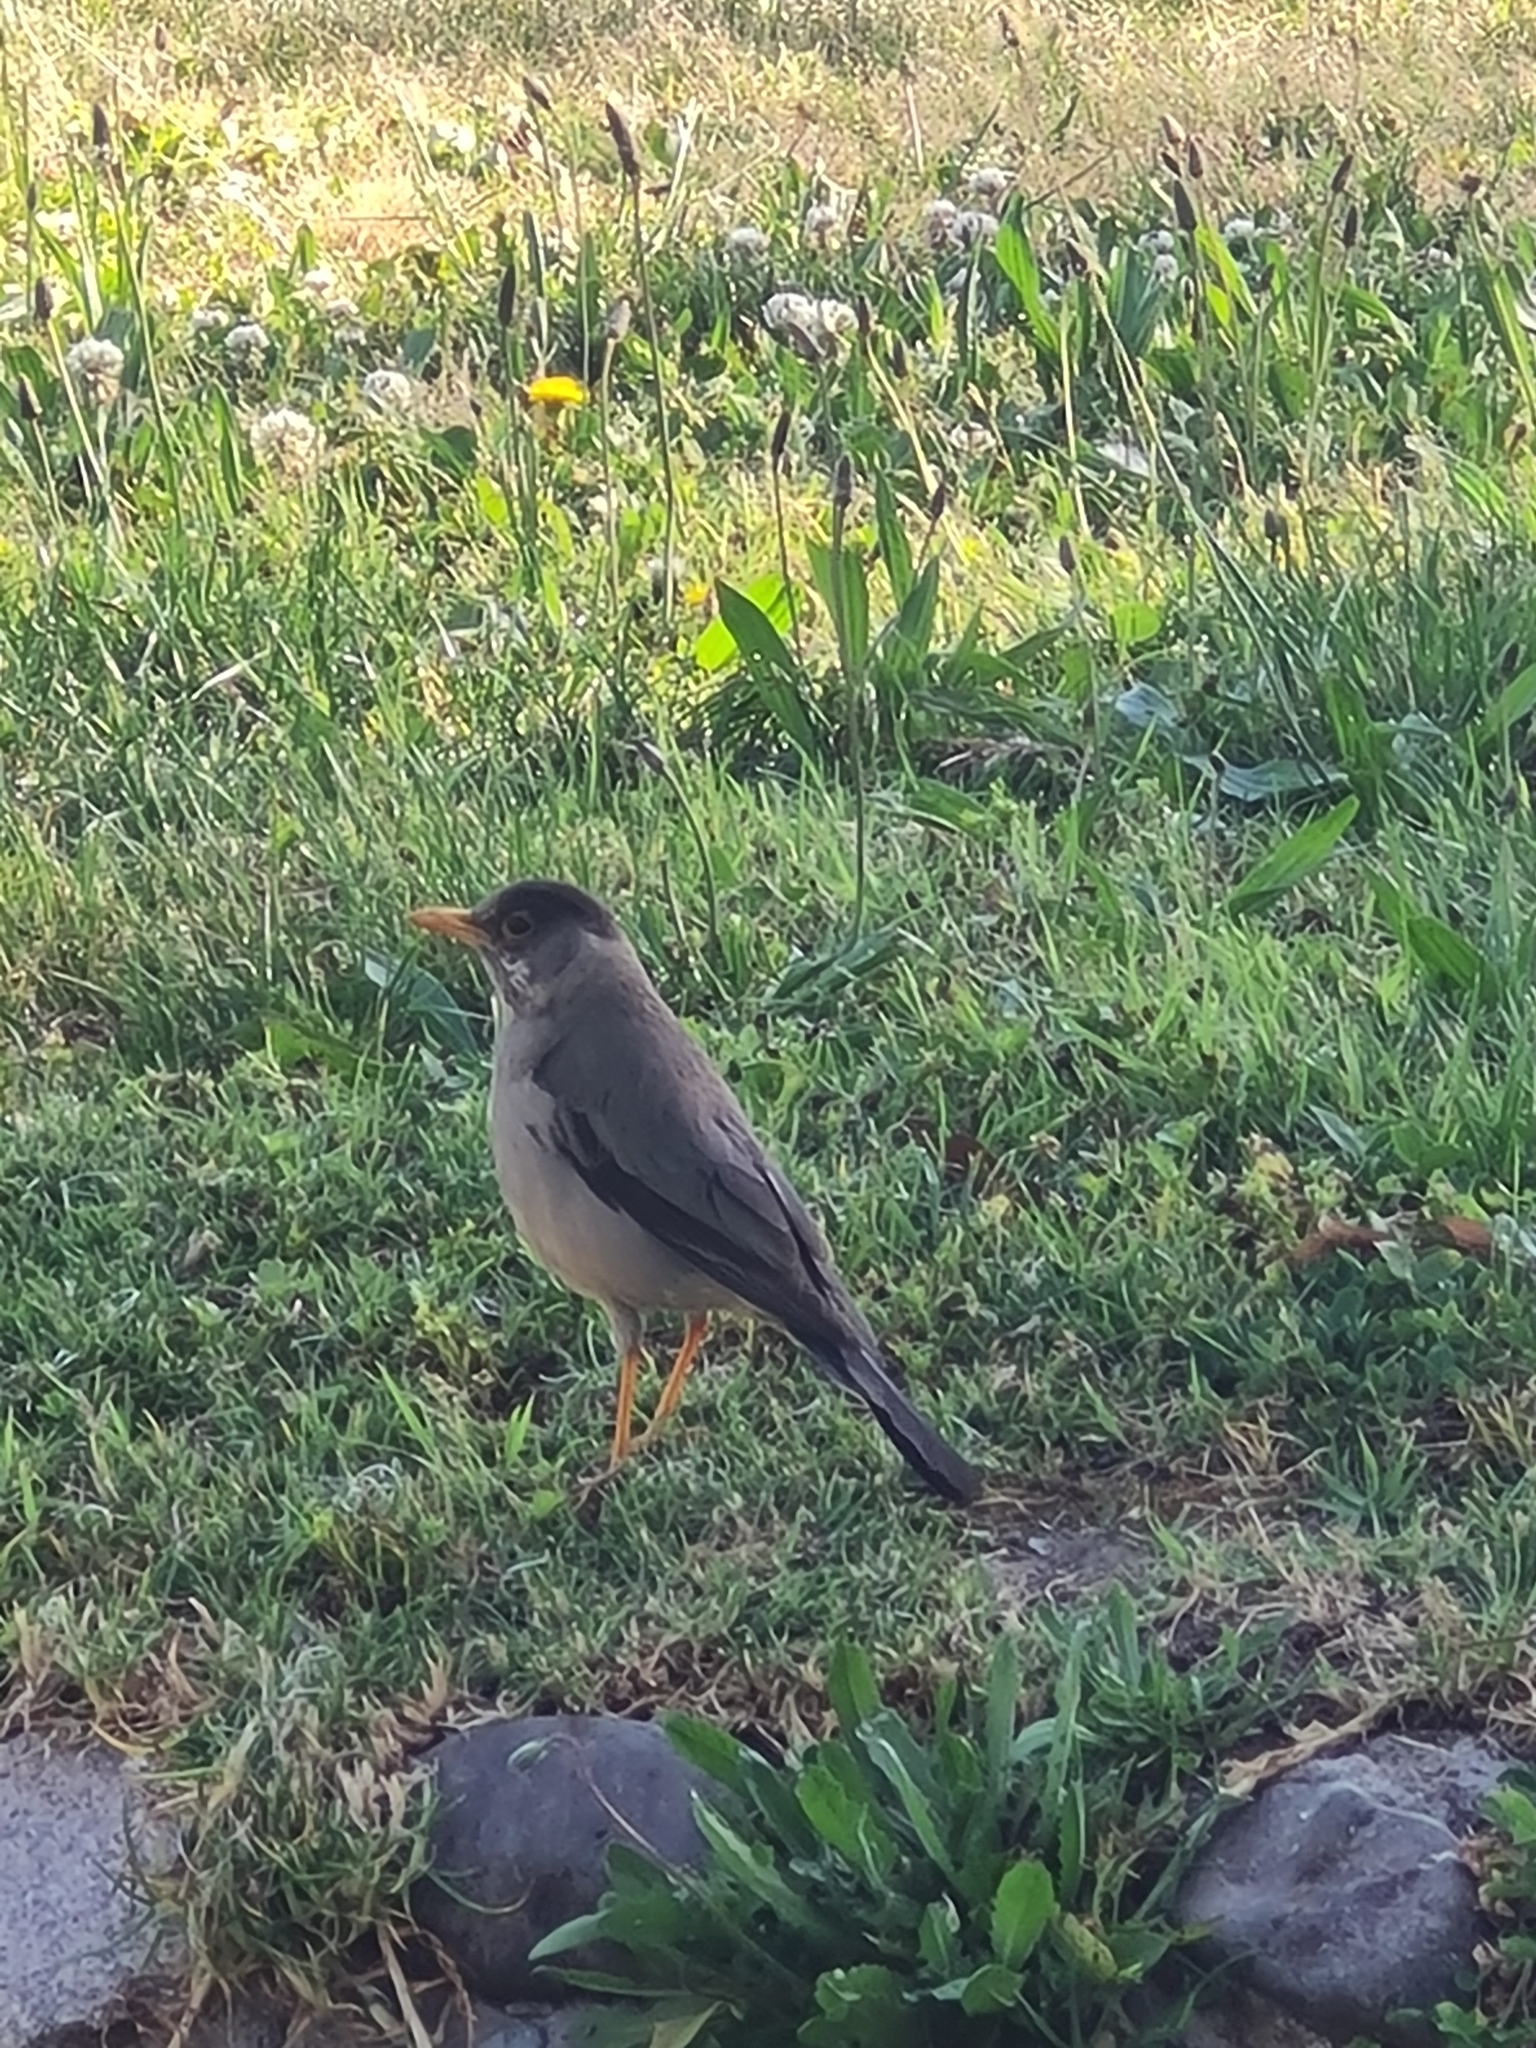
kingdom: Animalia
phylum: Chordata
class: Aves
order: Passeriformes
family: Turdidae
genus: Turdus
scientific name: Turdus falcklandii
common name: Austral thrush
